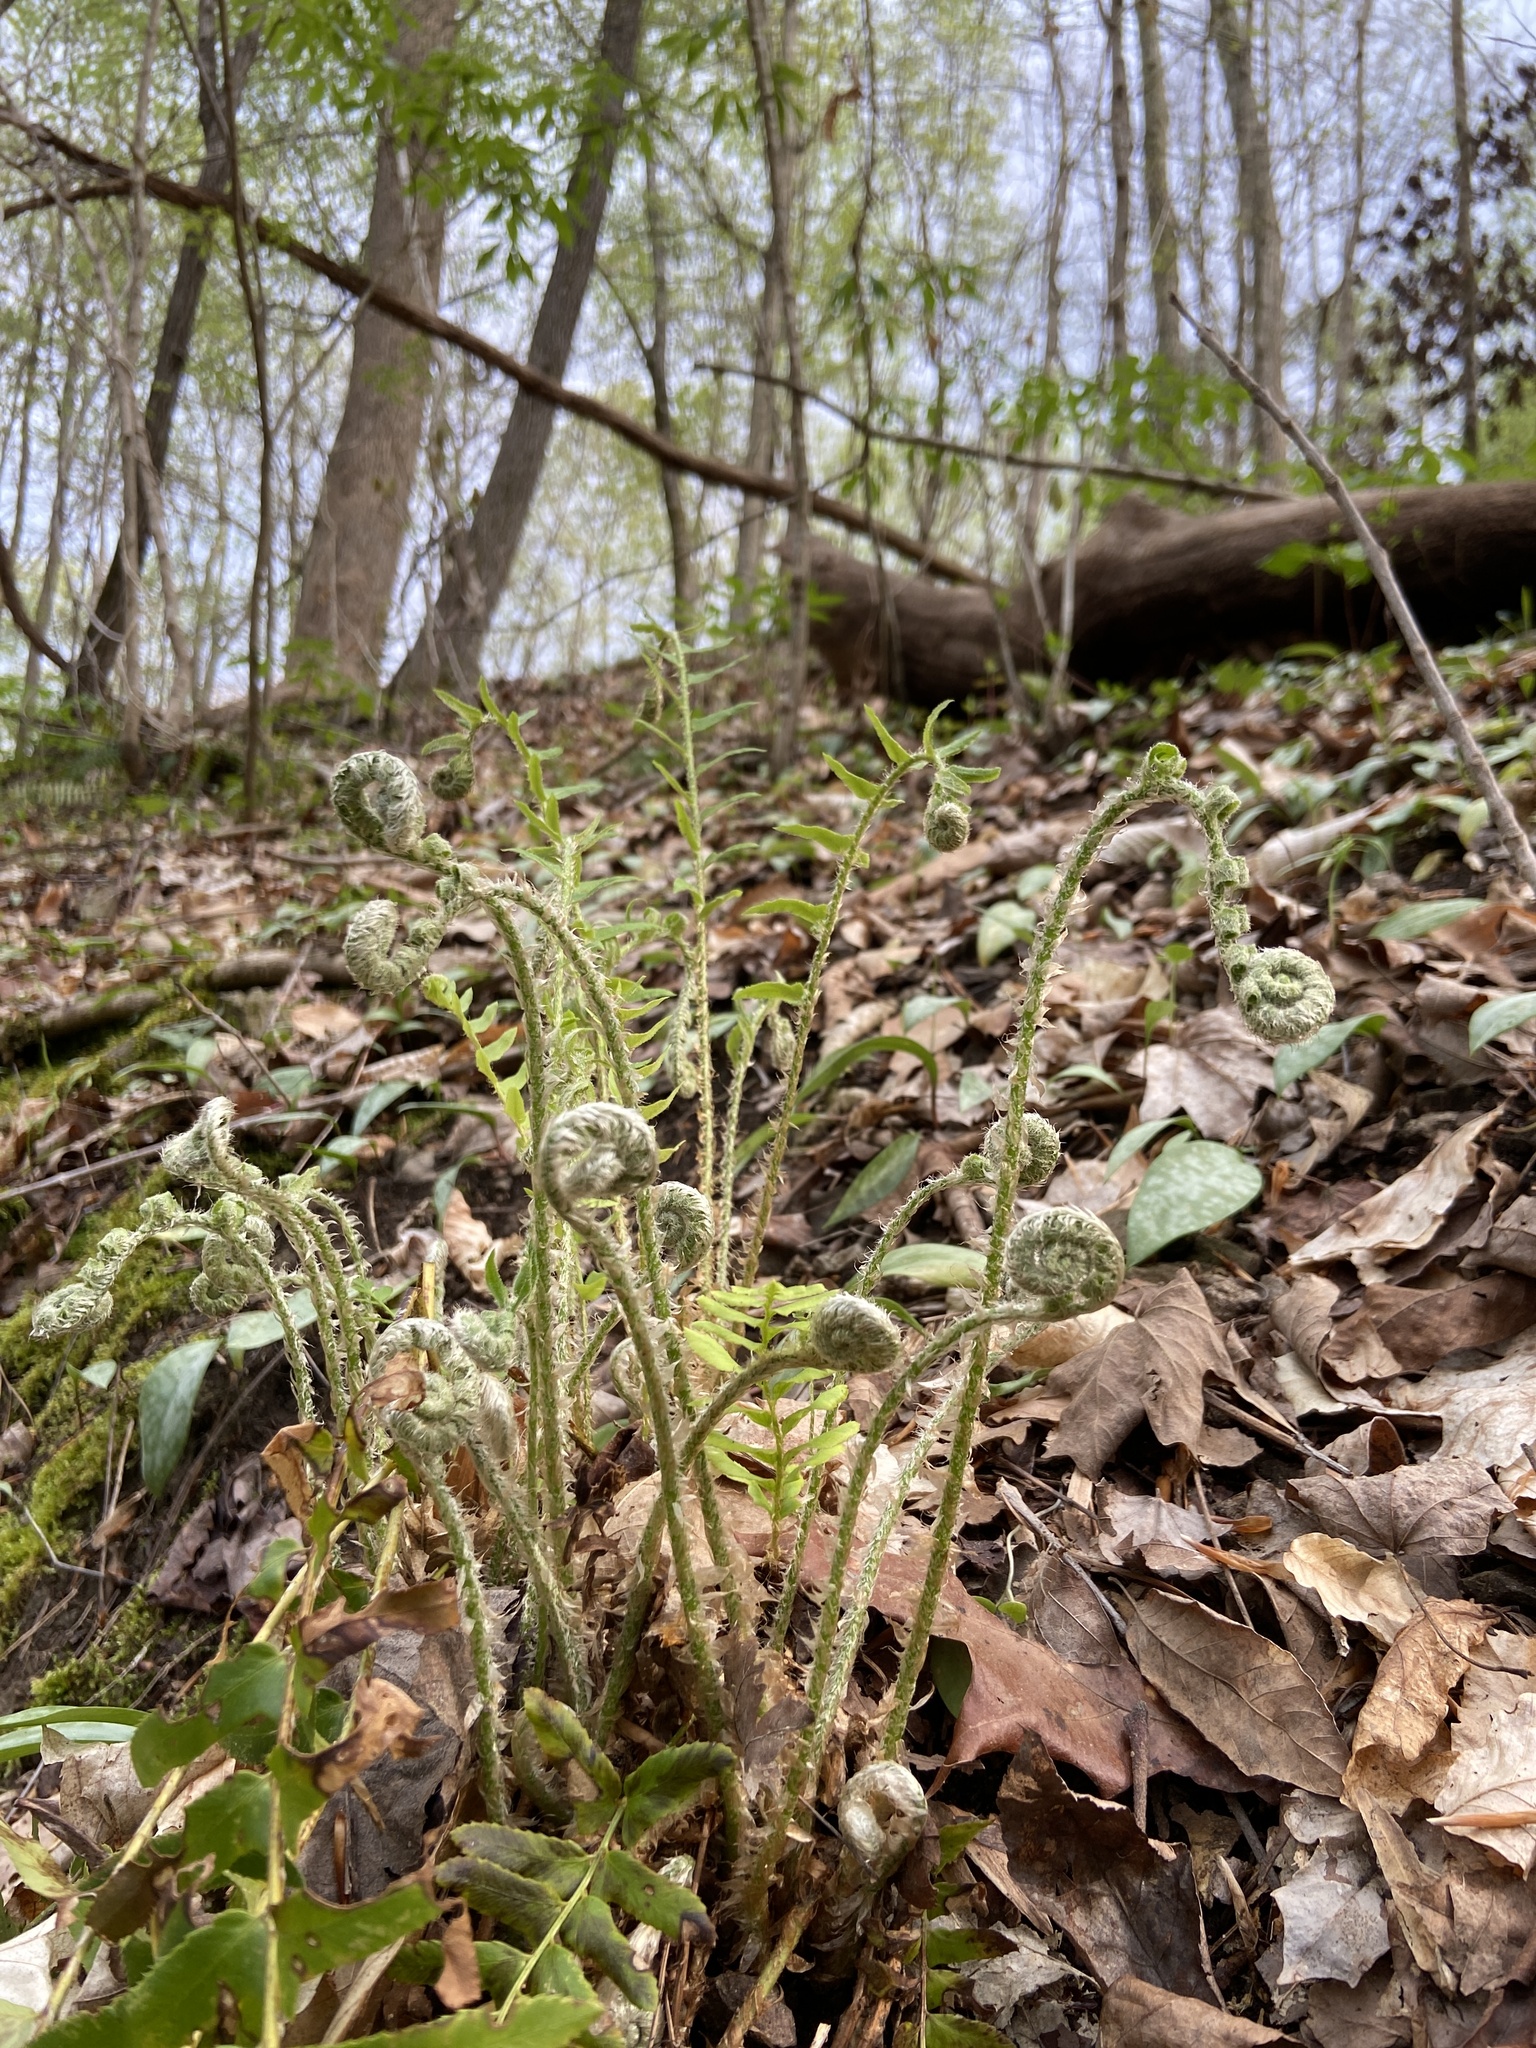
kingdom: Plantae
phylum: Tracheophyta
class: Polypodiopsida
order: Polypodiales
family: Dryopteridaceae
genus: Polystichum
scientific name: Polystichum acrostichoides
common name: Christmas fern
